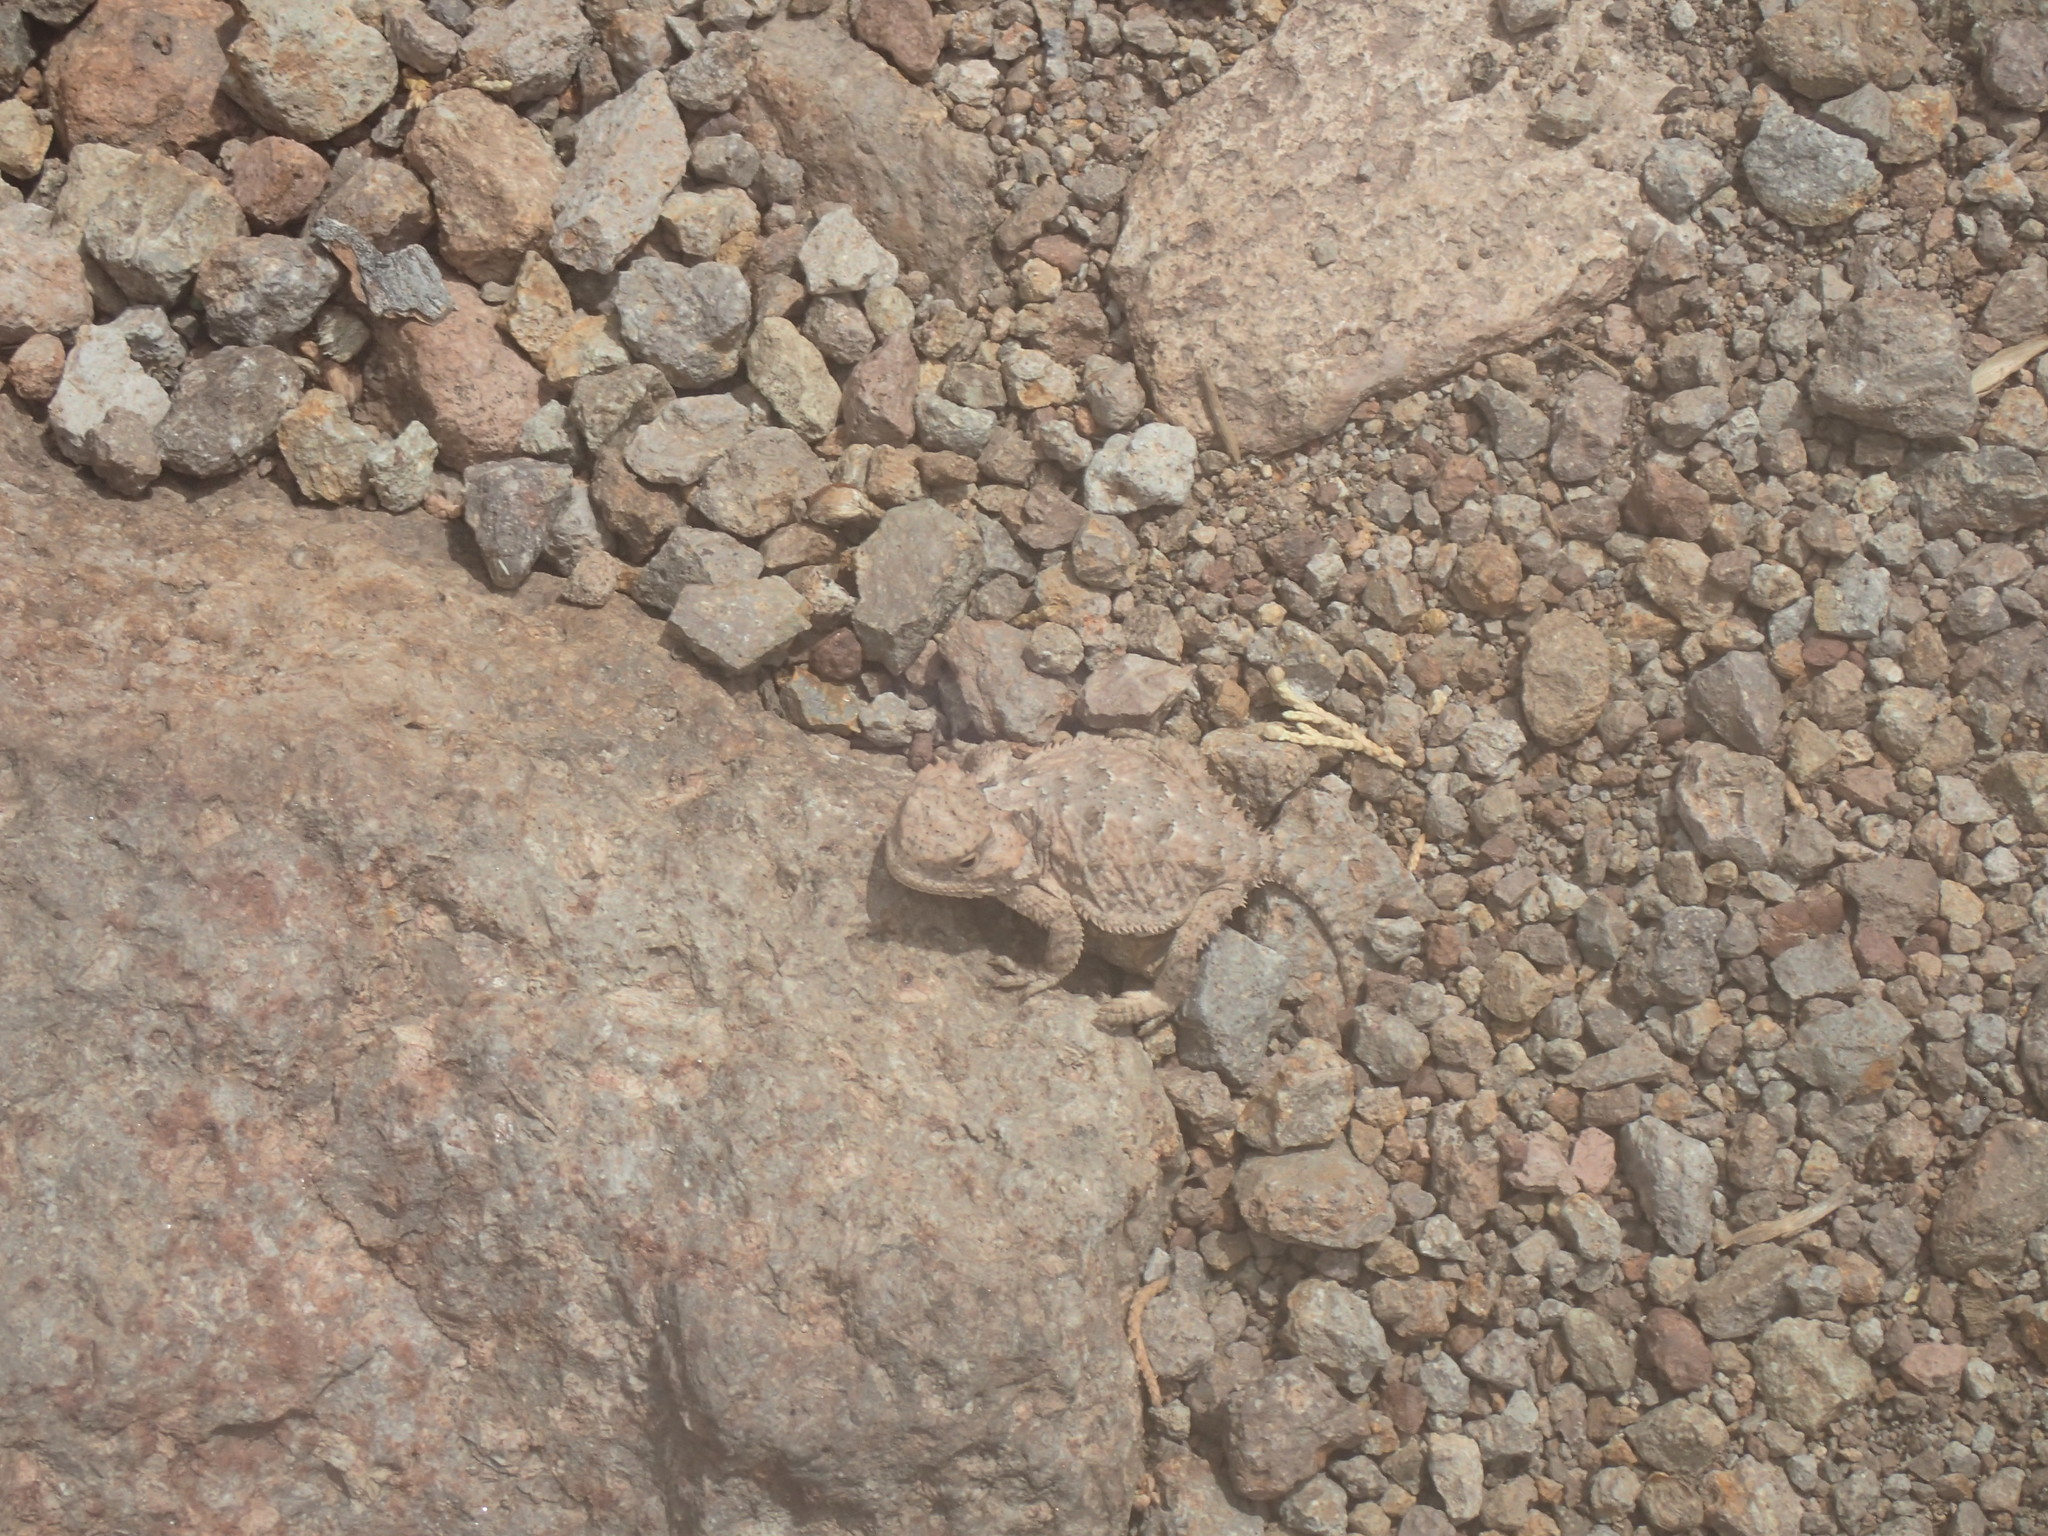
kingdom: Animalia
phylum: Chordata
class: Squamata
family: Phrynosomatidae
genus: Phrynosoma
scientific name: Phrynosoma hernandesi
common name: Greater short-horned lizard
